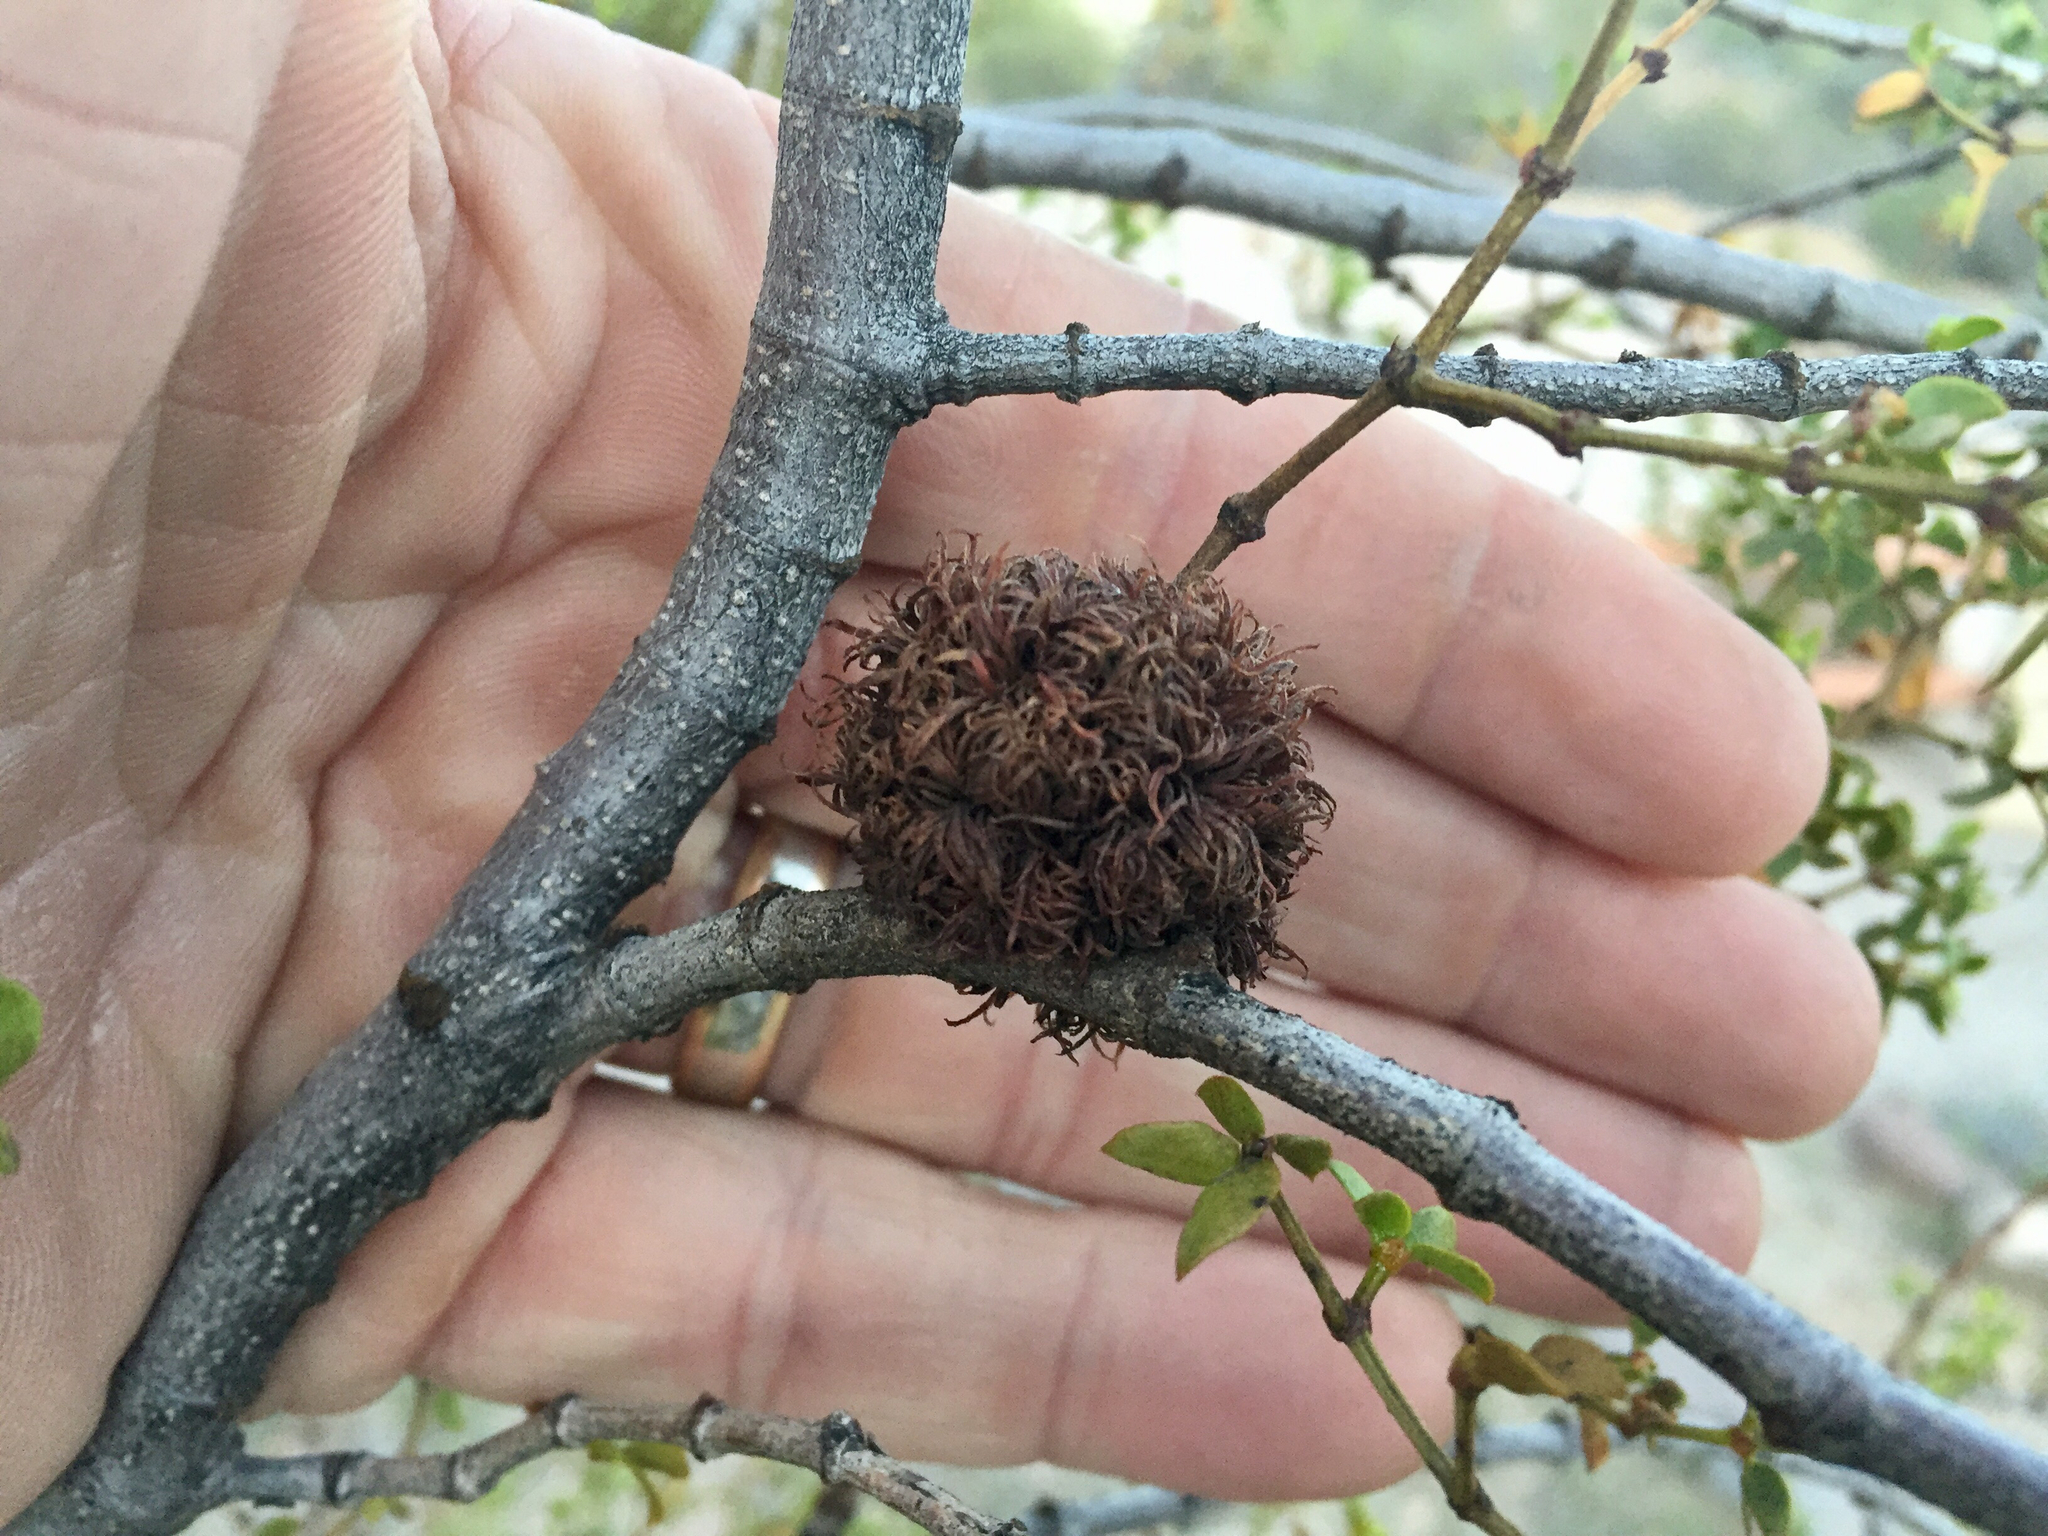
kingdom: Animalia
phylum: Arthropoda
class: Insecta
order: Diptera
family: Cecidomyiidae
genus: Asphondylia
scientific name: Asphondylia auripila
